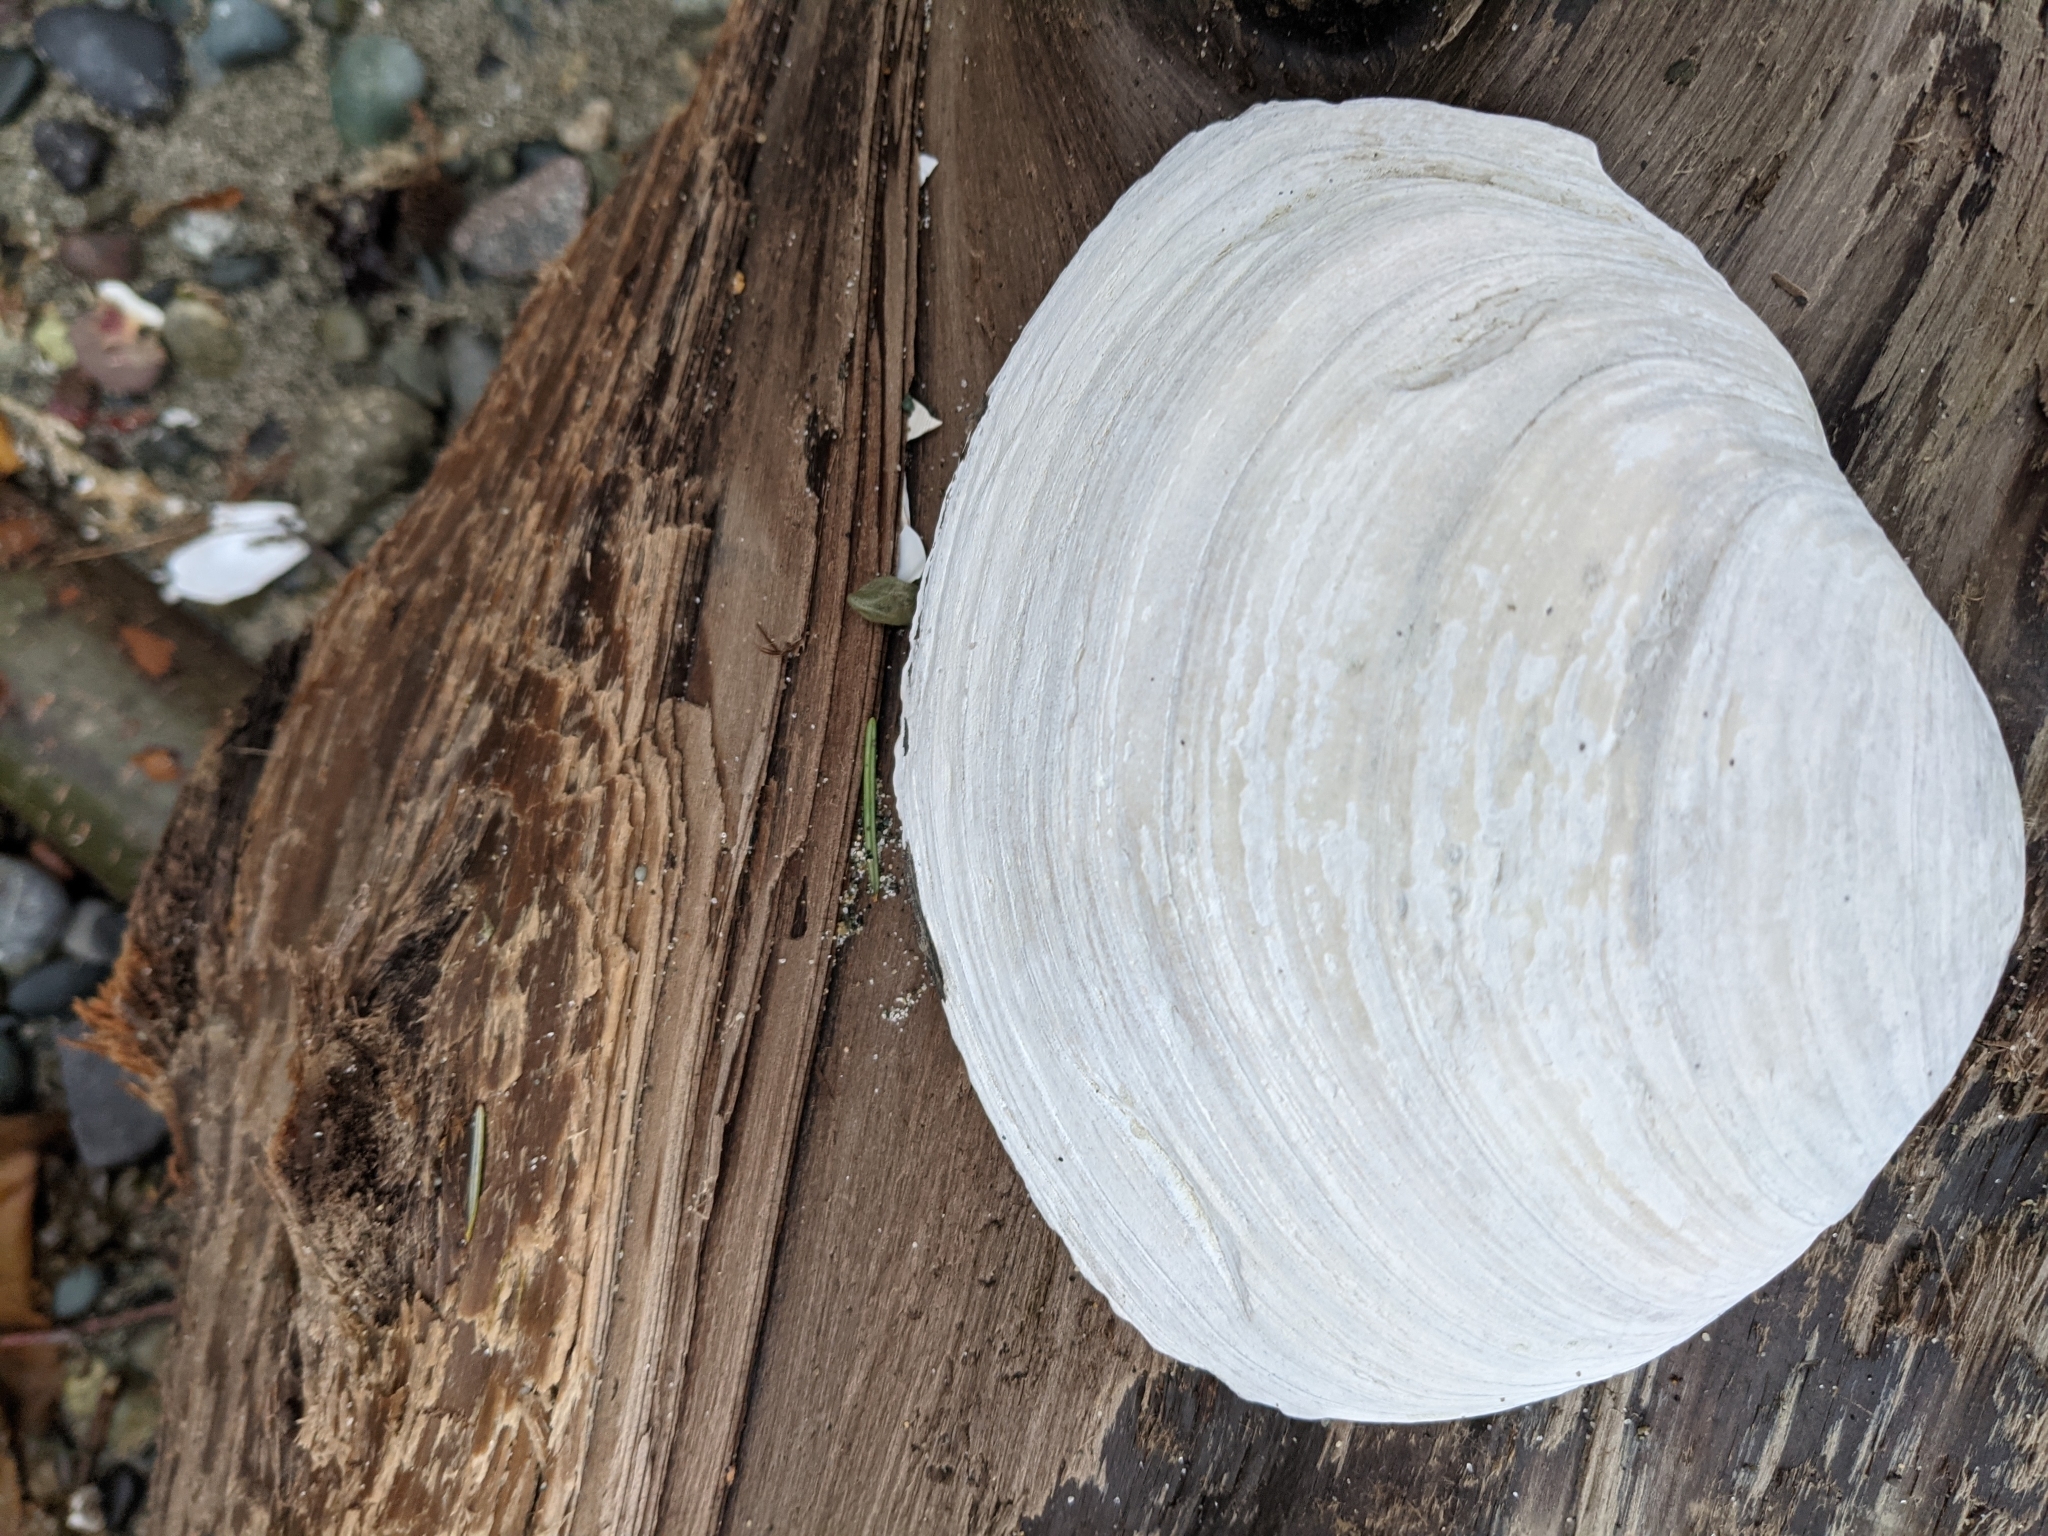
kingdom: Animalia
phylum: Mollusca
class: Bivalvia
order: Venerida
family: Mactridae
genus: Tresus
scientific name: Tresus capax
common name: Fat gaper
